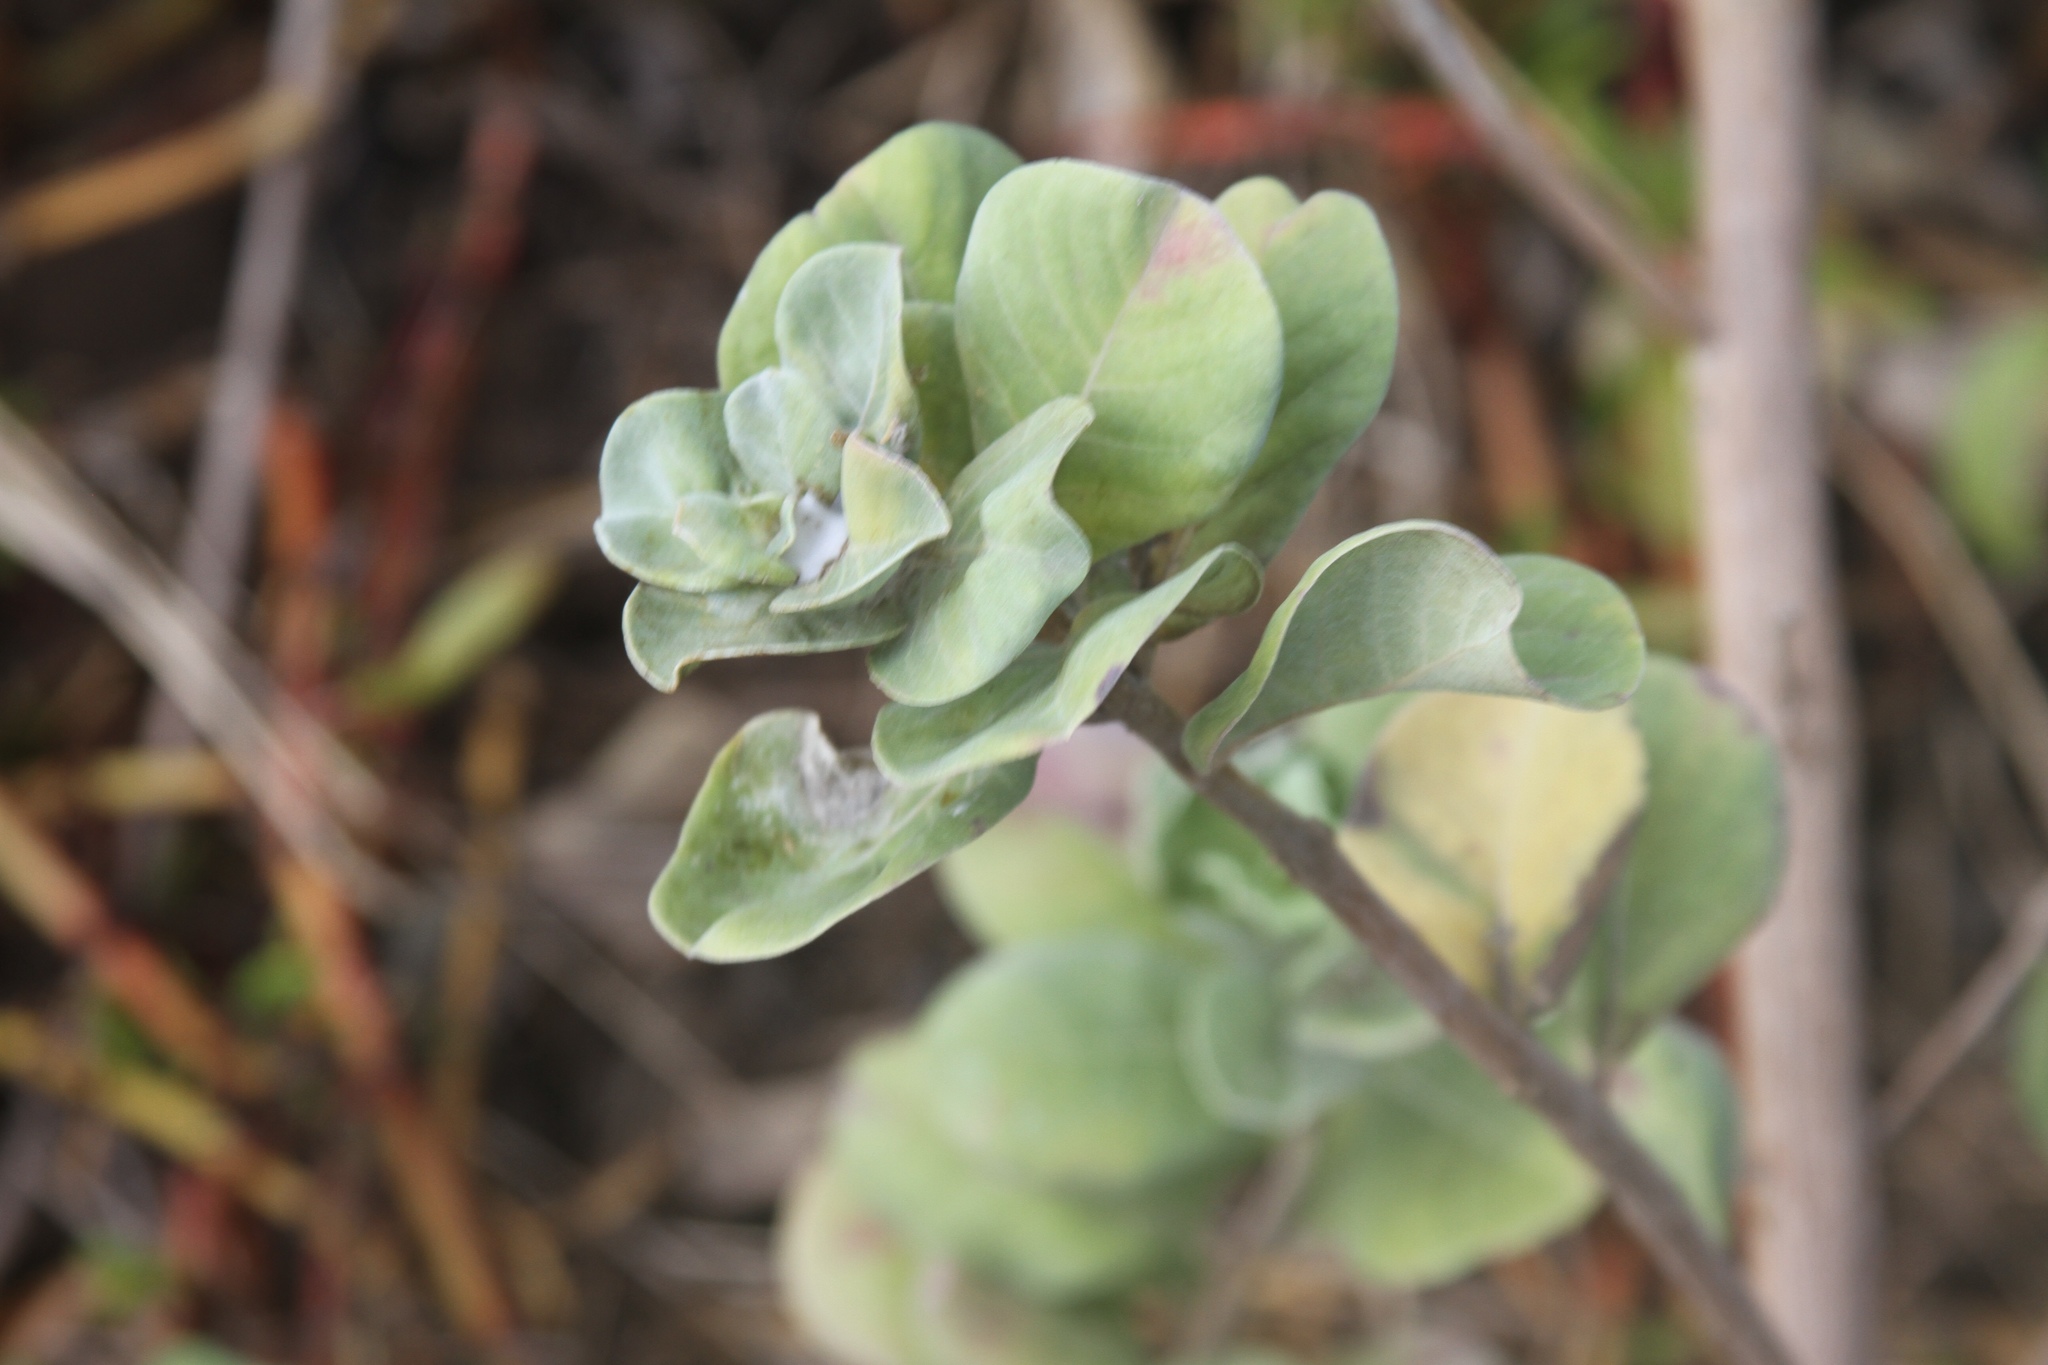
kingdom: Plantae
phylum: Tracheophyta
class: Magnoliopsida
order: Lamiales
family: Lamiaceae
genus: Vitex
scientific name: Vitex rotundifolia
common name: Beach vitex
